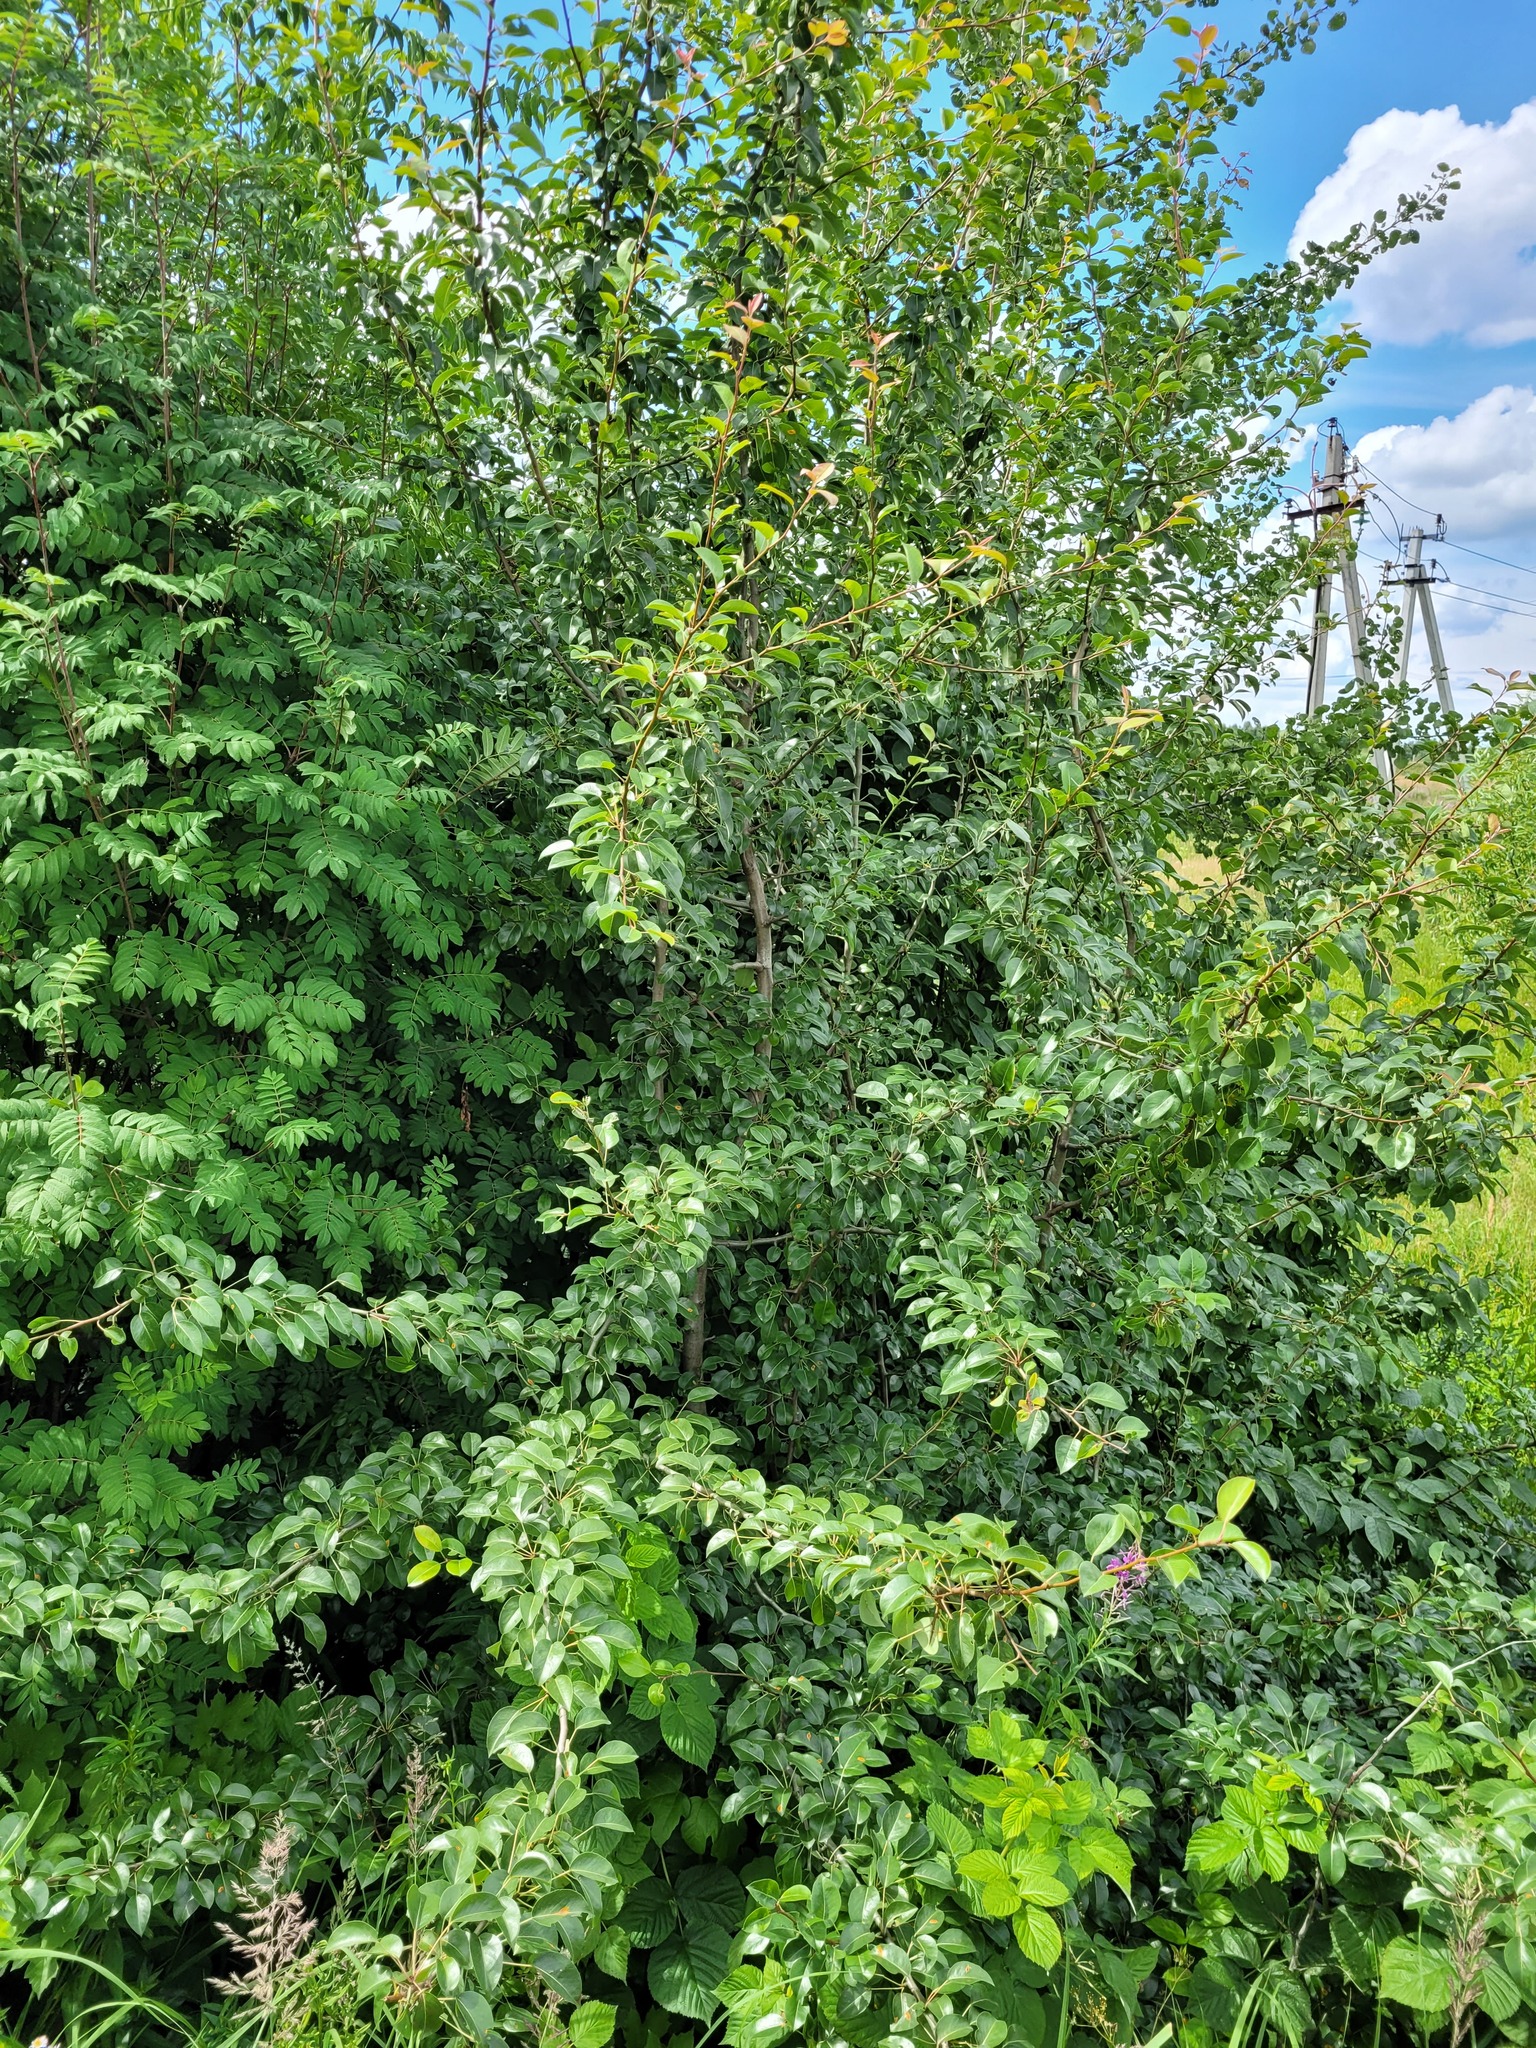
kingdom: Plantae
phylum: Tracheophyta
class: Magnoliopsida
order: Rosales
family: Rosaceae
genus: Pyrus
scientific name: Pyrus communis
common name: Pear
